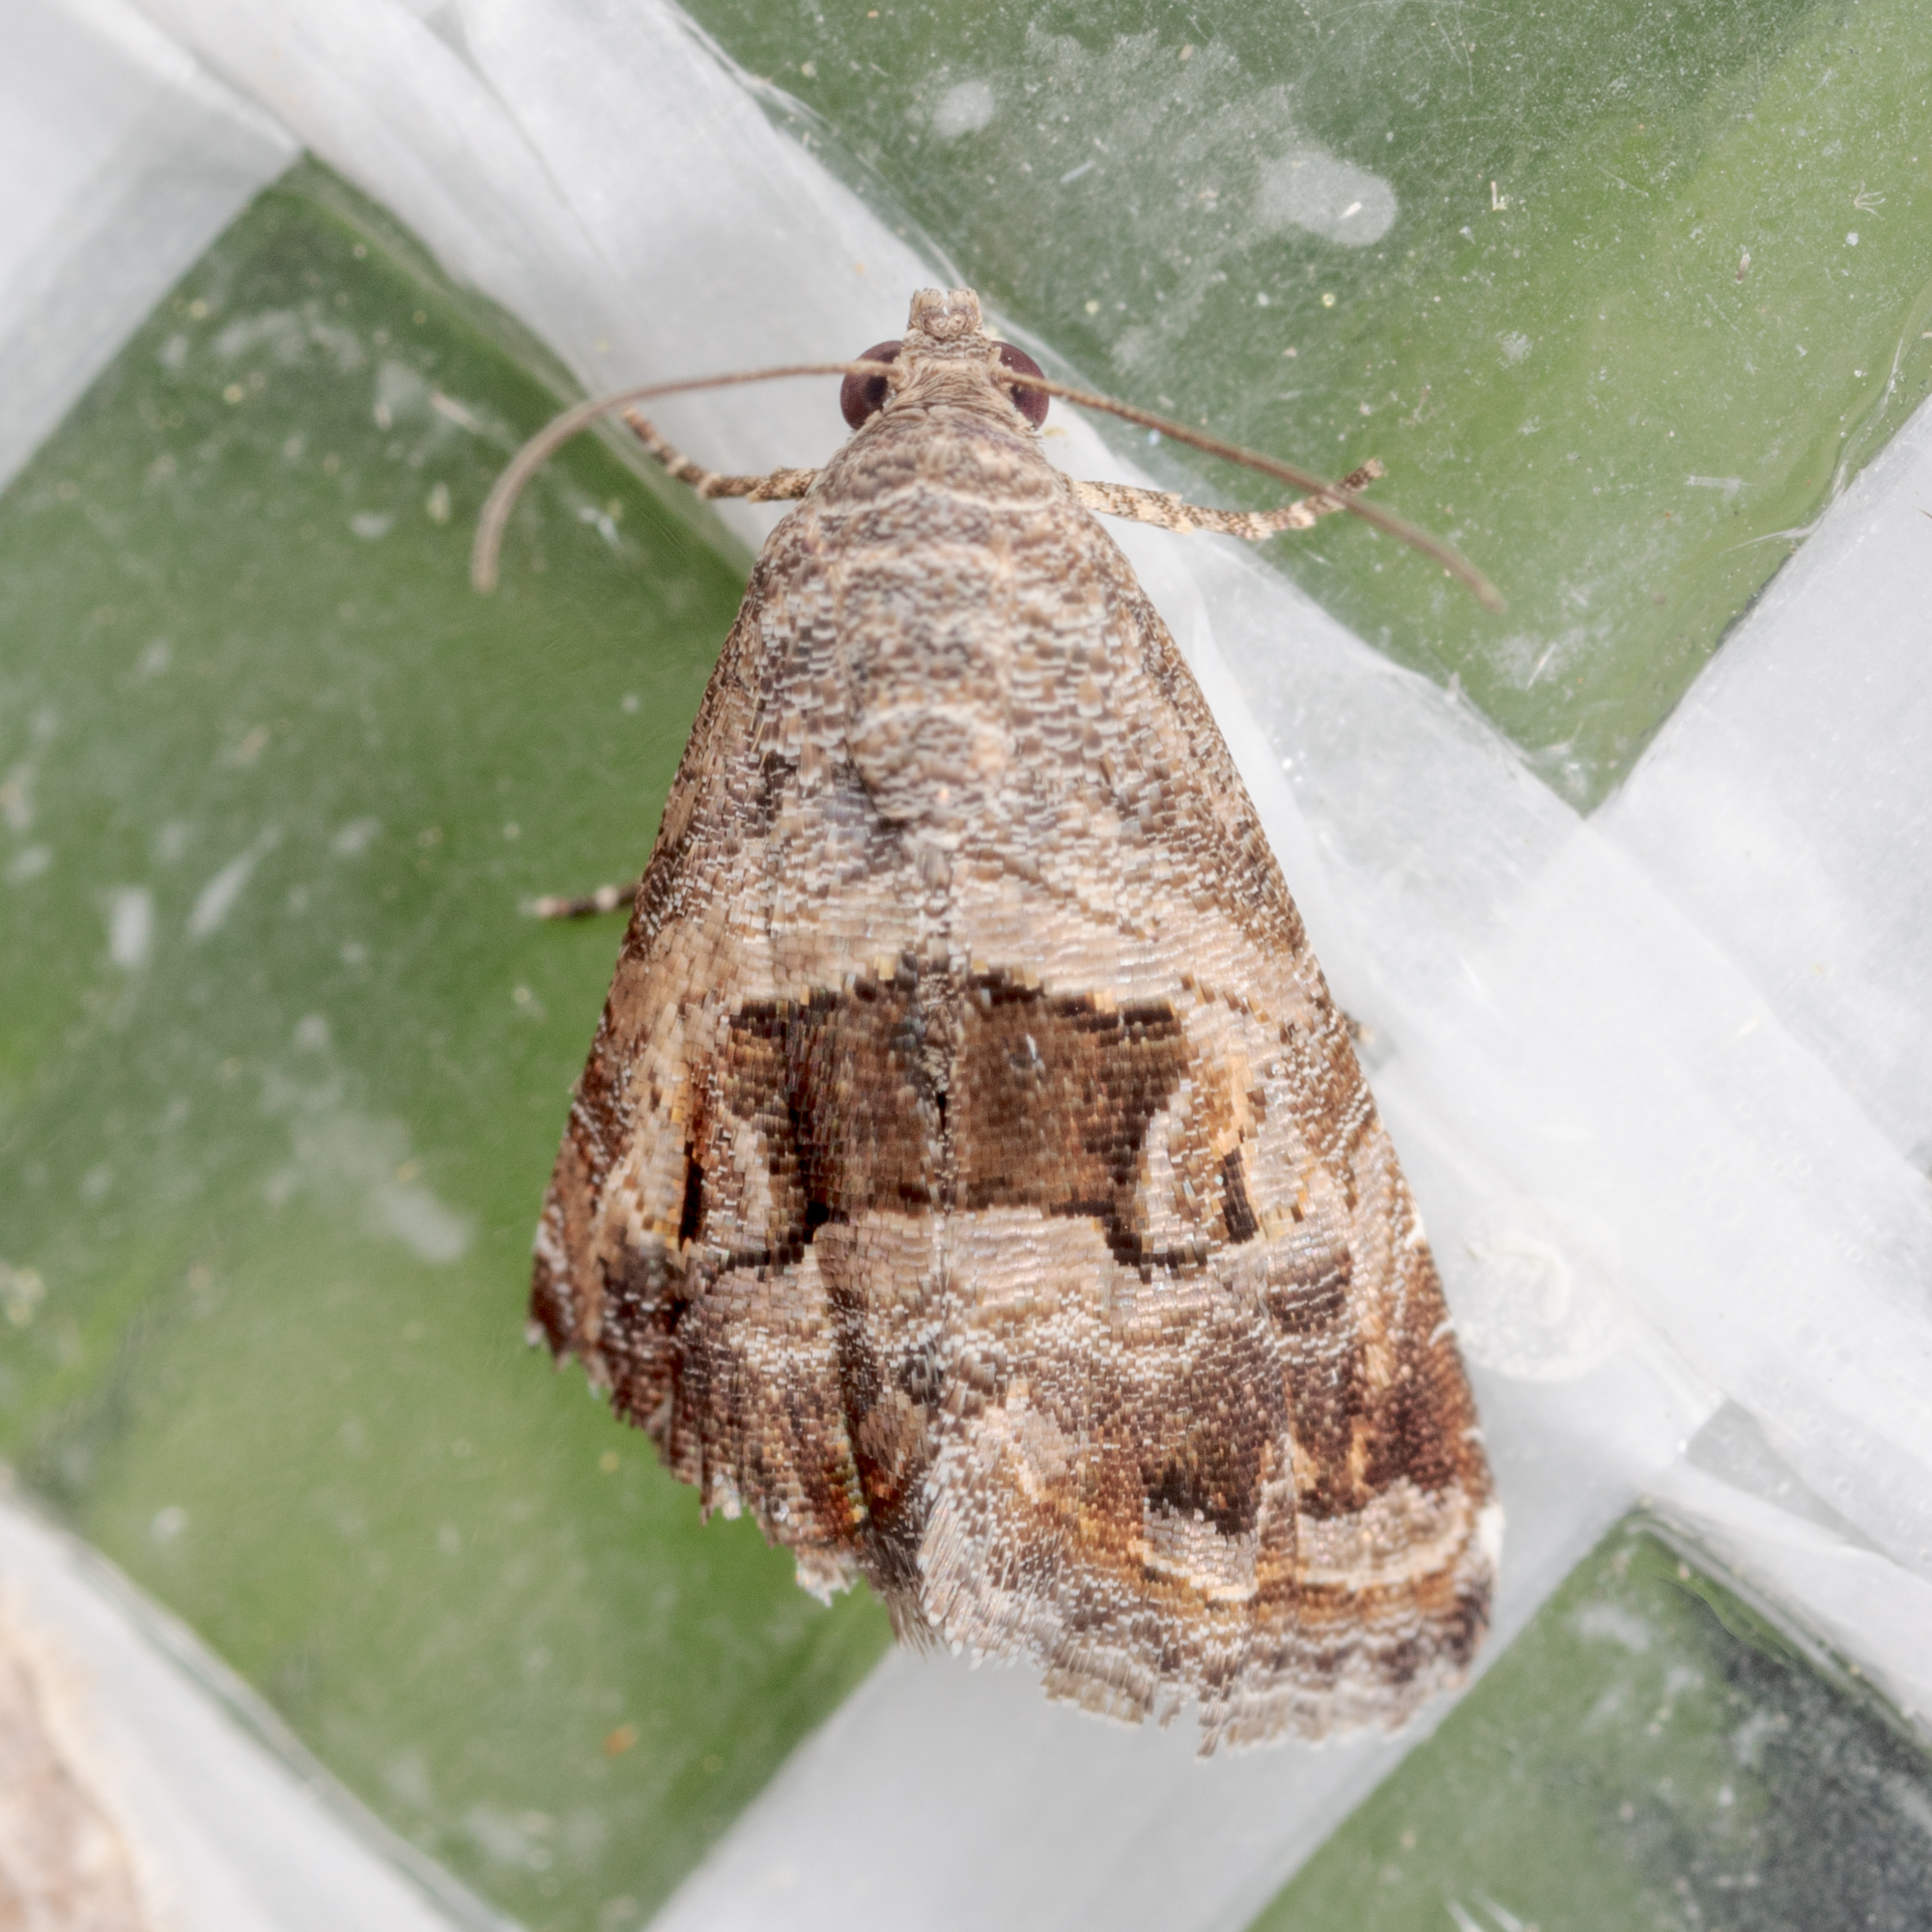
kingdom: Animalia
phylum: Arthropoda
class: Insecta
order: Lepidoptera
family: Noctuidae
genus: Tripudia
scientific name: Tripudia quadrifera
